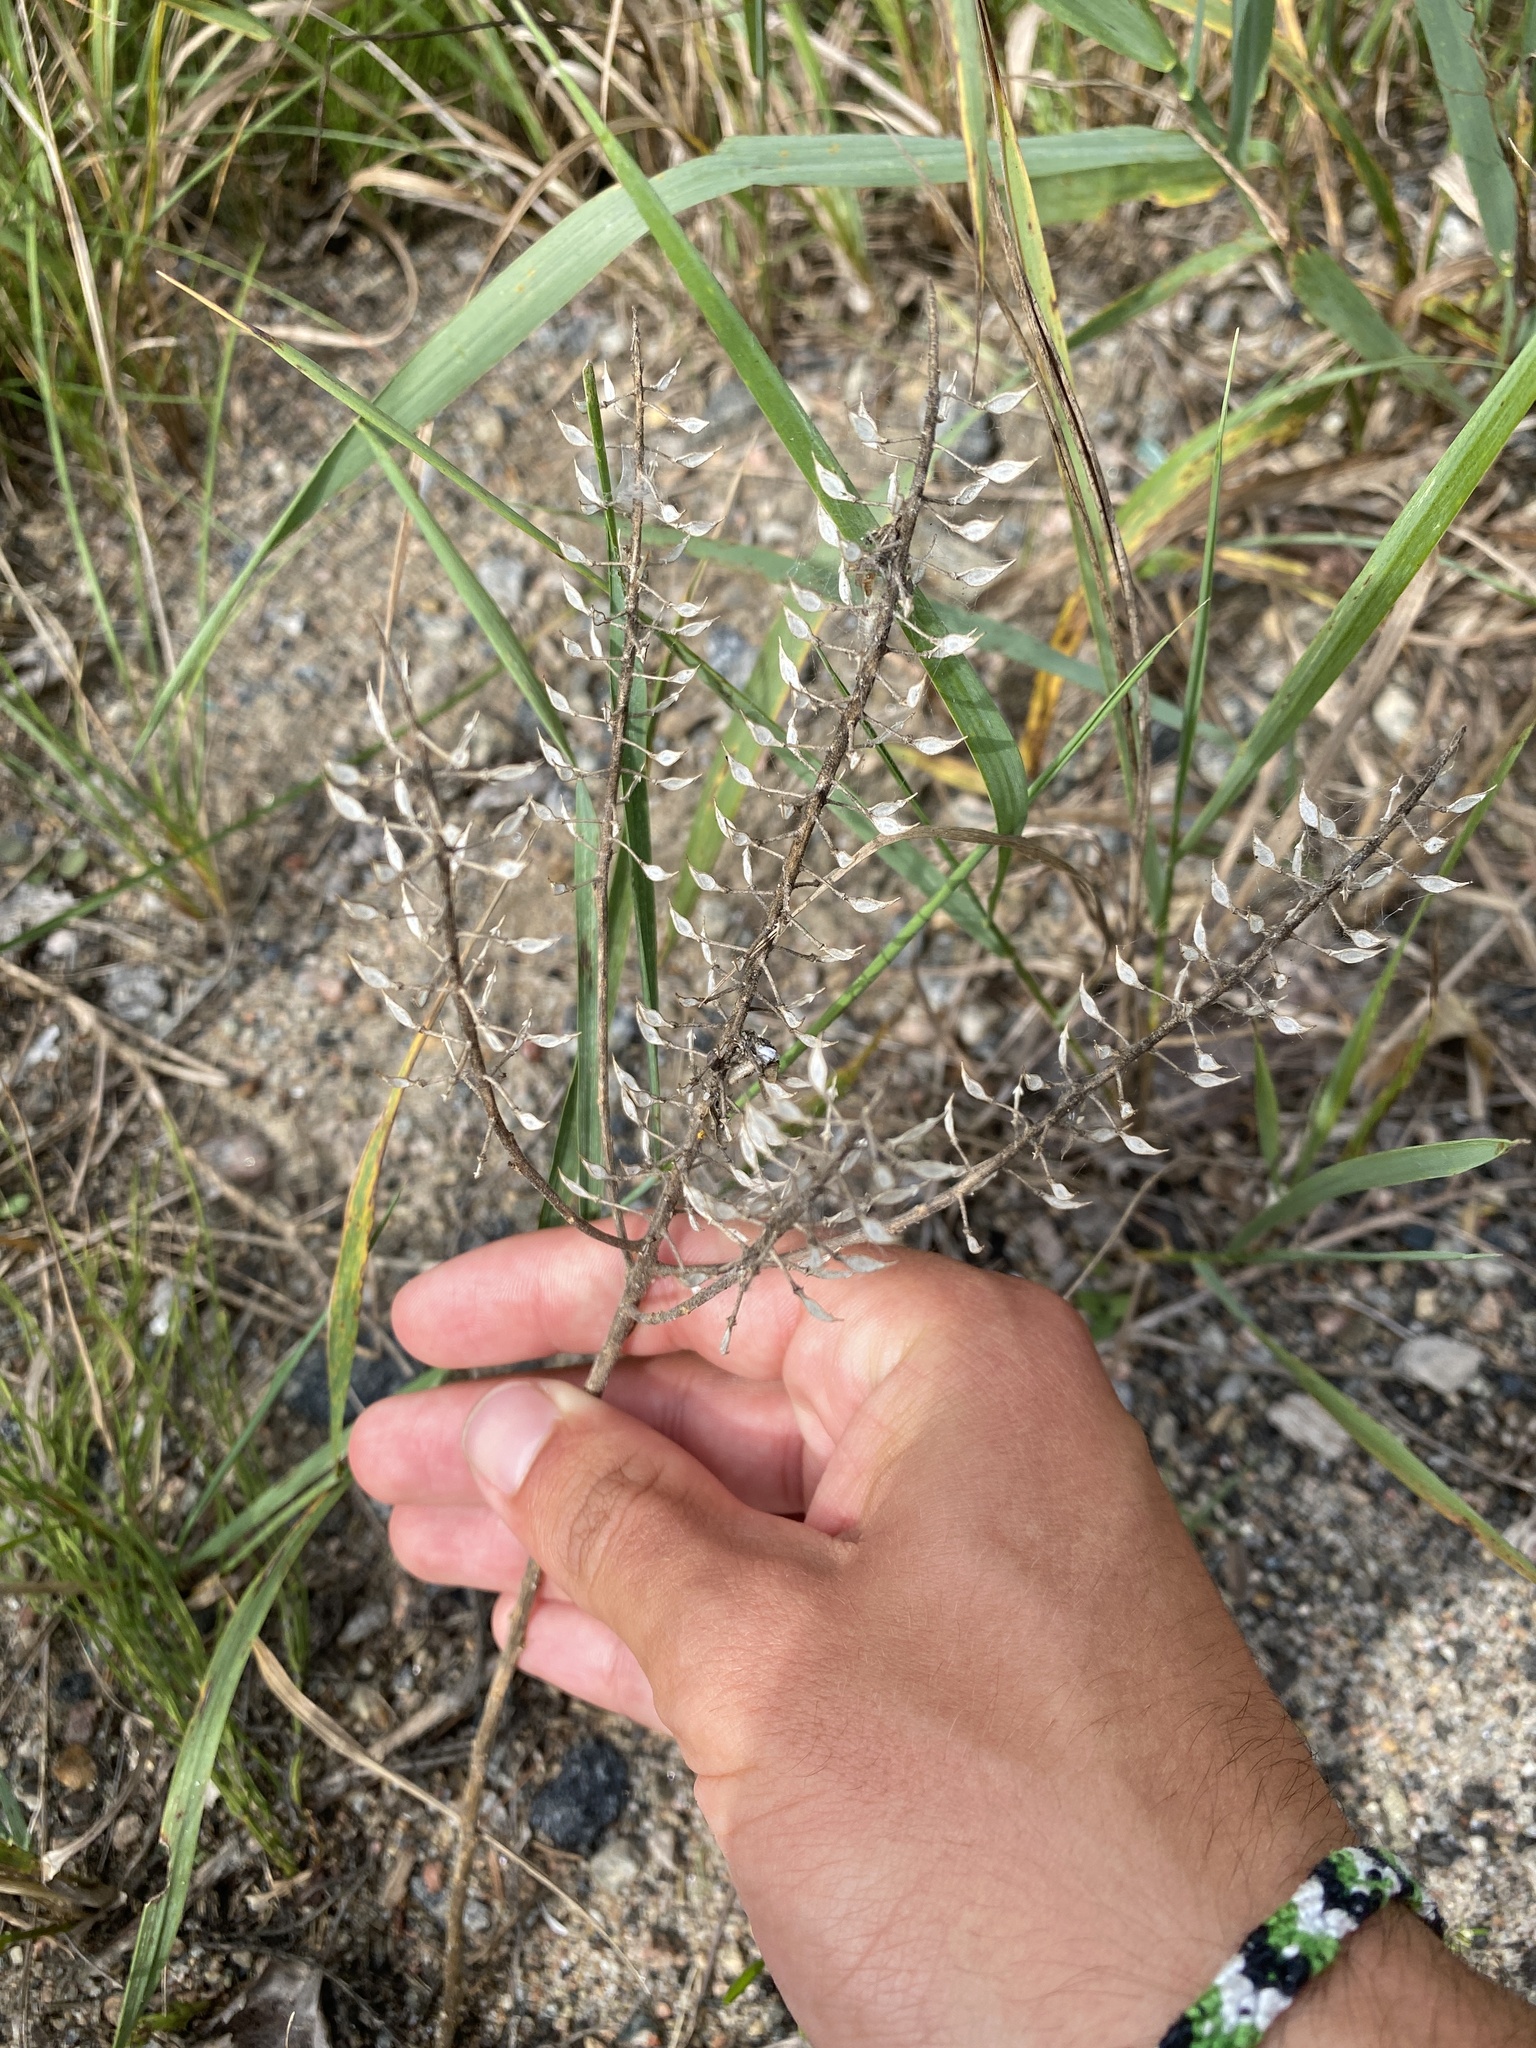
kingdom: Plantae
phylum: Tracheophyta
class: Magnoliopsida
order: Brassicales
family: Brassicaceae
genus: Lepidium
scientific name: Lepidium campestre
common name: Field pepperwort
